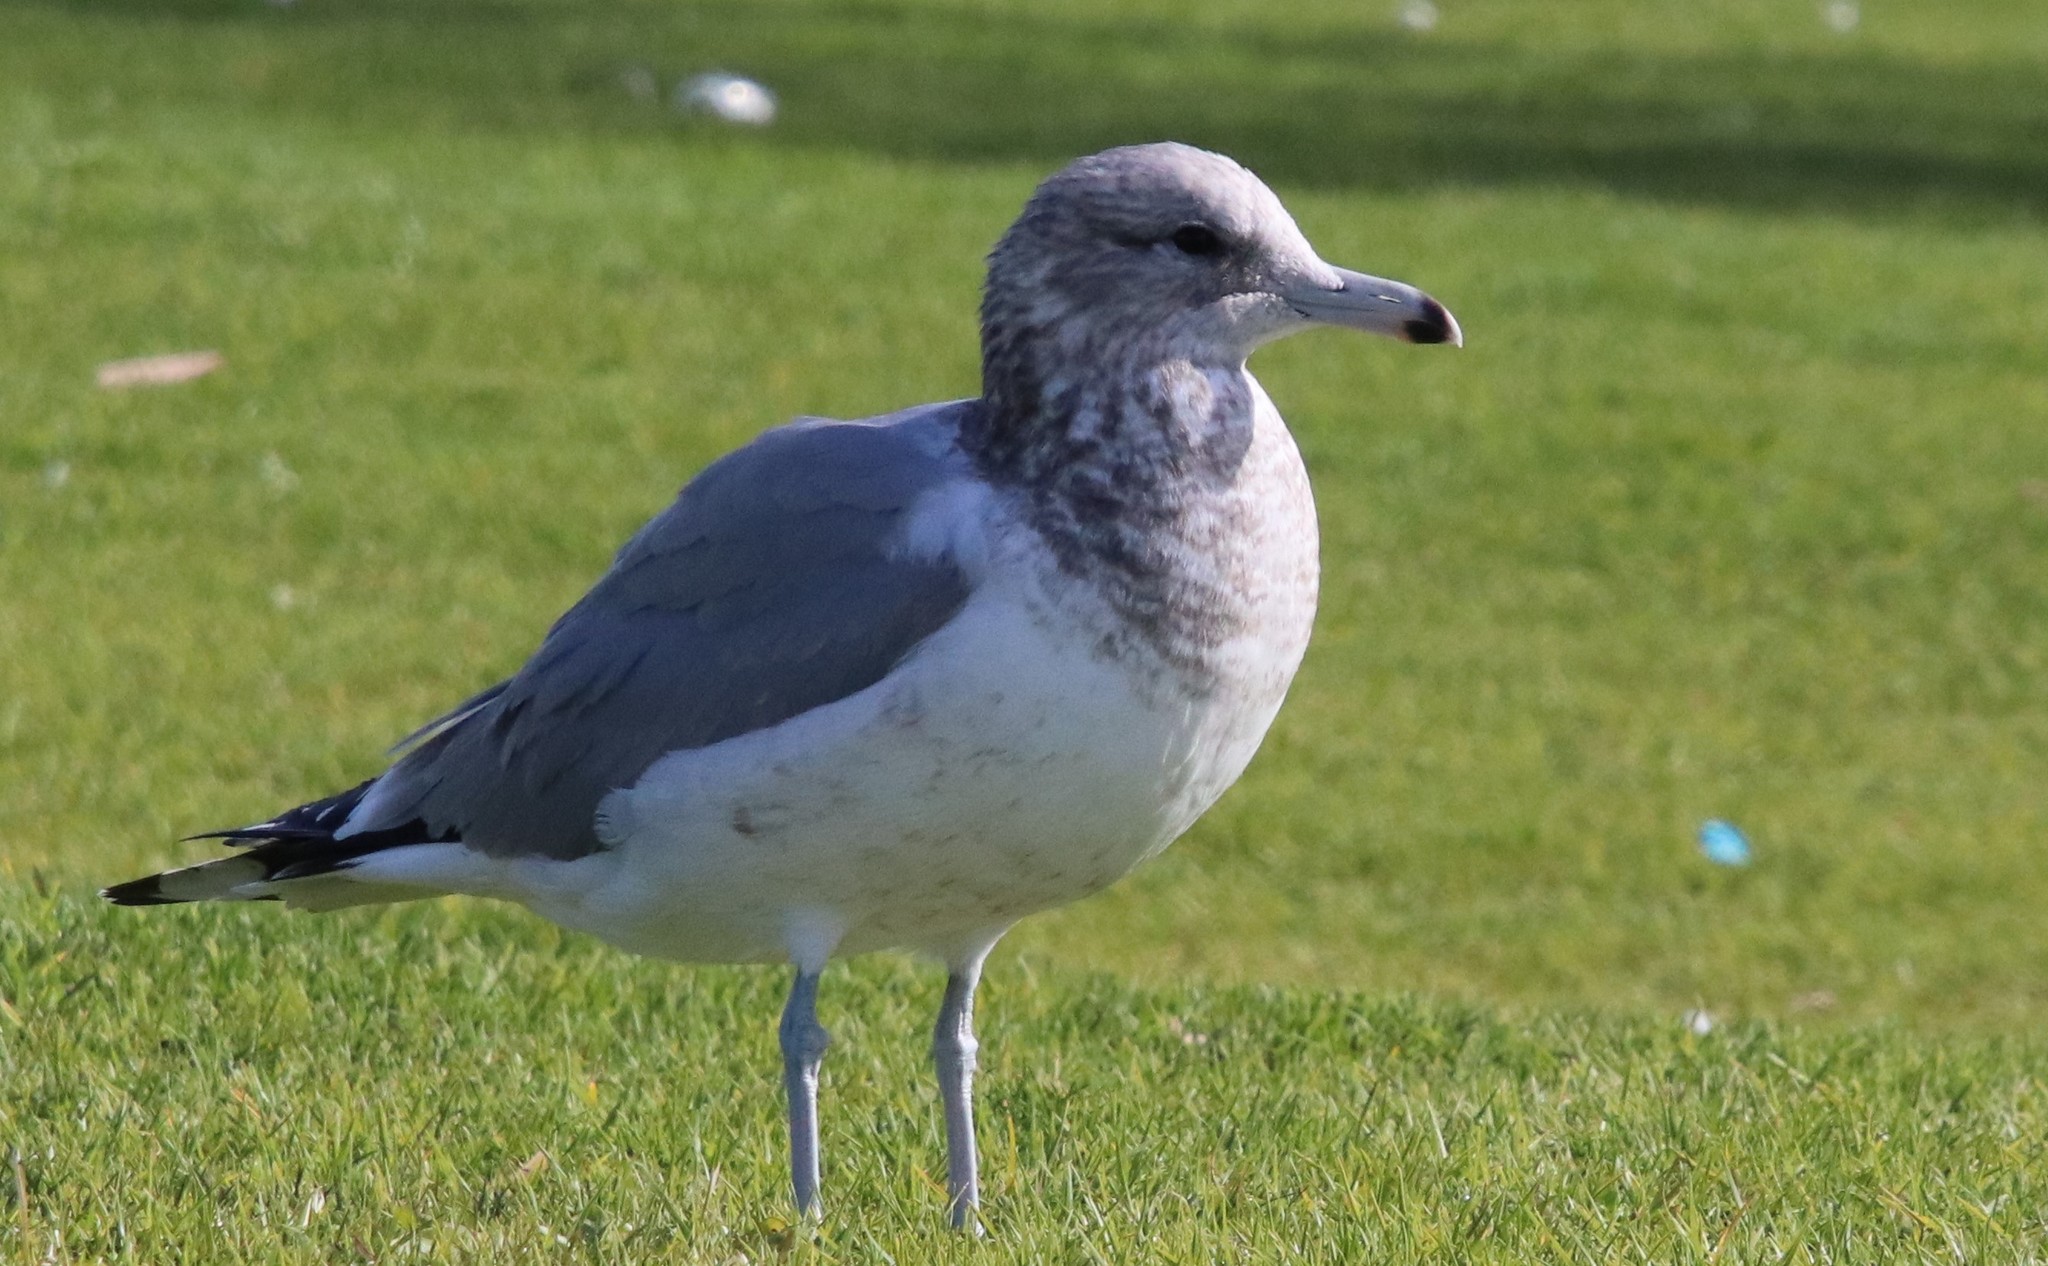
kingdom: Animalia
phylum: Chordata
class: Aves
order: Charadriiformes
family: Laridae
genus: Larus
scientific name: Larus californicus
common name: California gull
